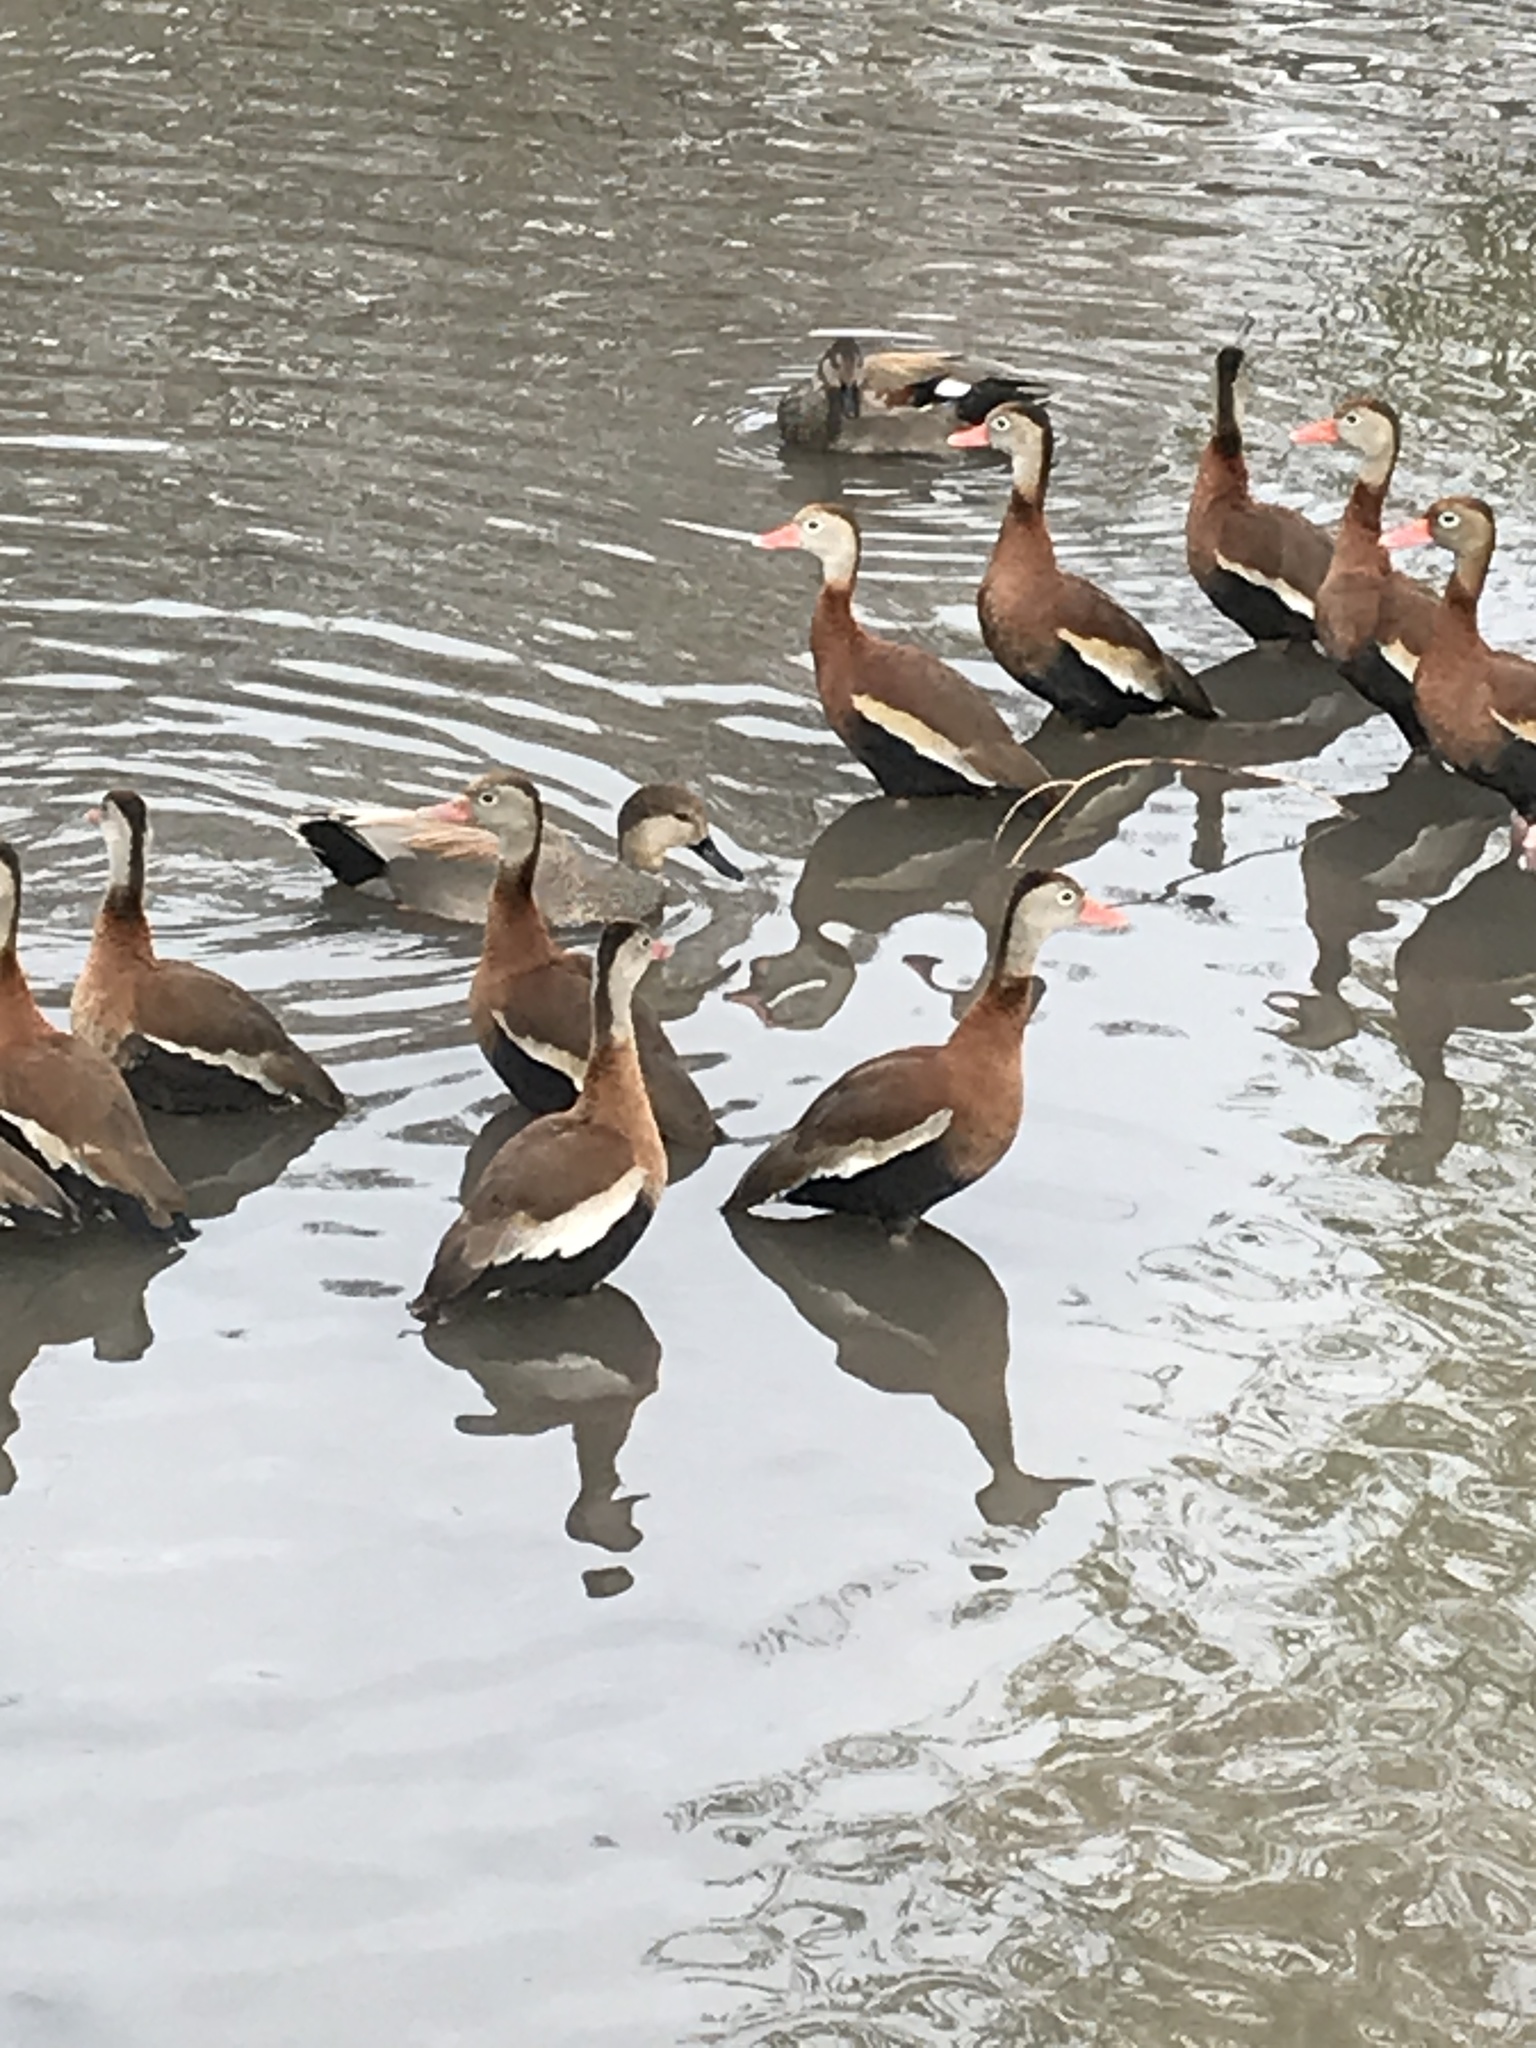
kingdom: Animalia
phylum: Chordata
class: Aves
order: Anseriformes
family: Anatidae
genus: Dendrocygna
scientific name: Dendrocygna autumnalis
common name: Black-bellied whistling duck
